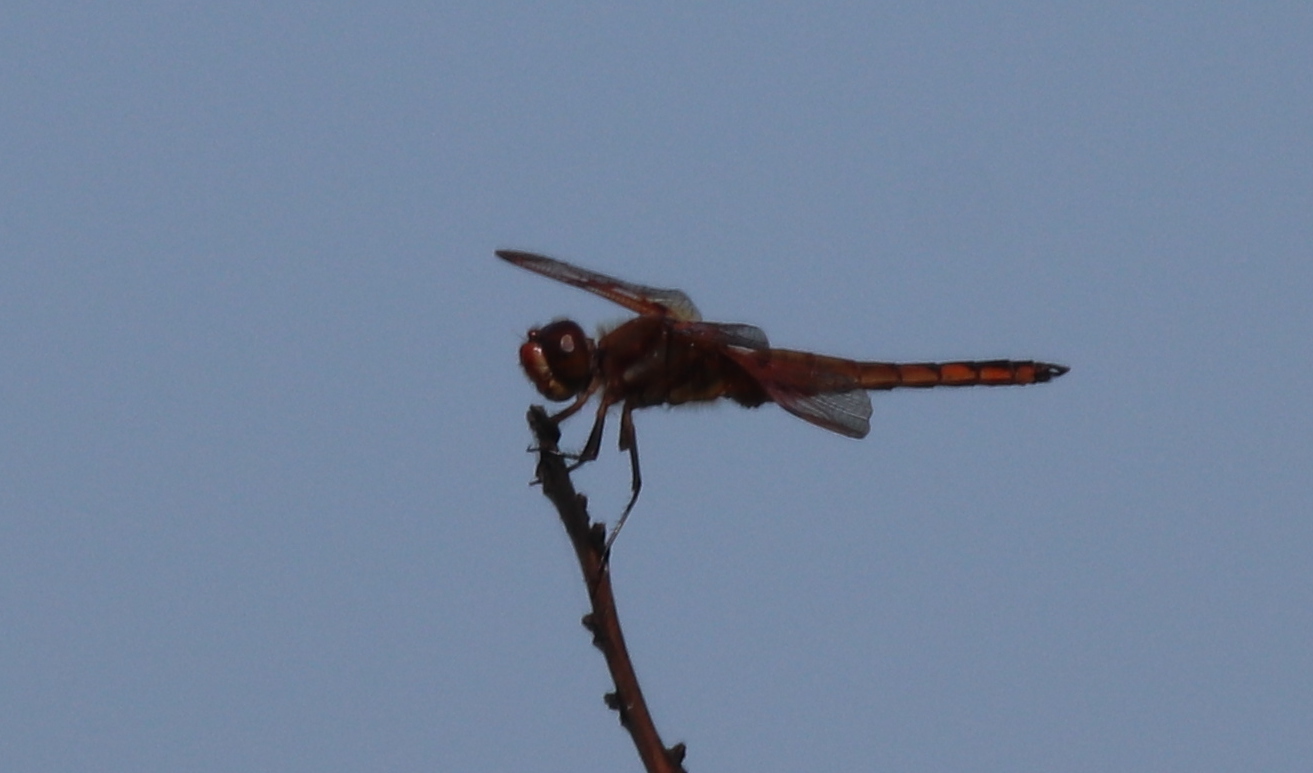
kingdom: Animalia
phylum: Arthropoda
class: Insecta
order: Odonata
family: Libellulidae
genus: Libellula
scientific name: Libellula auripennis
